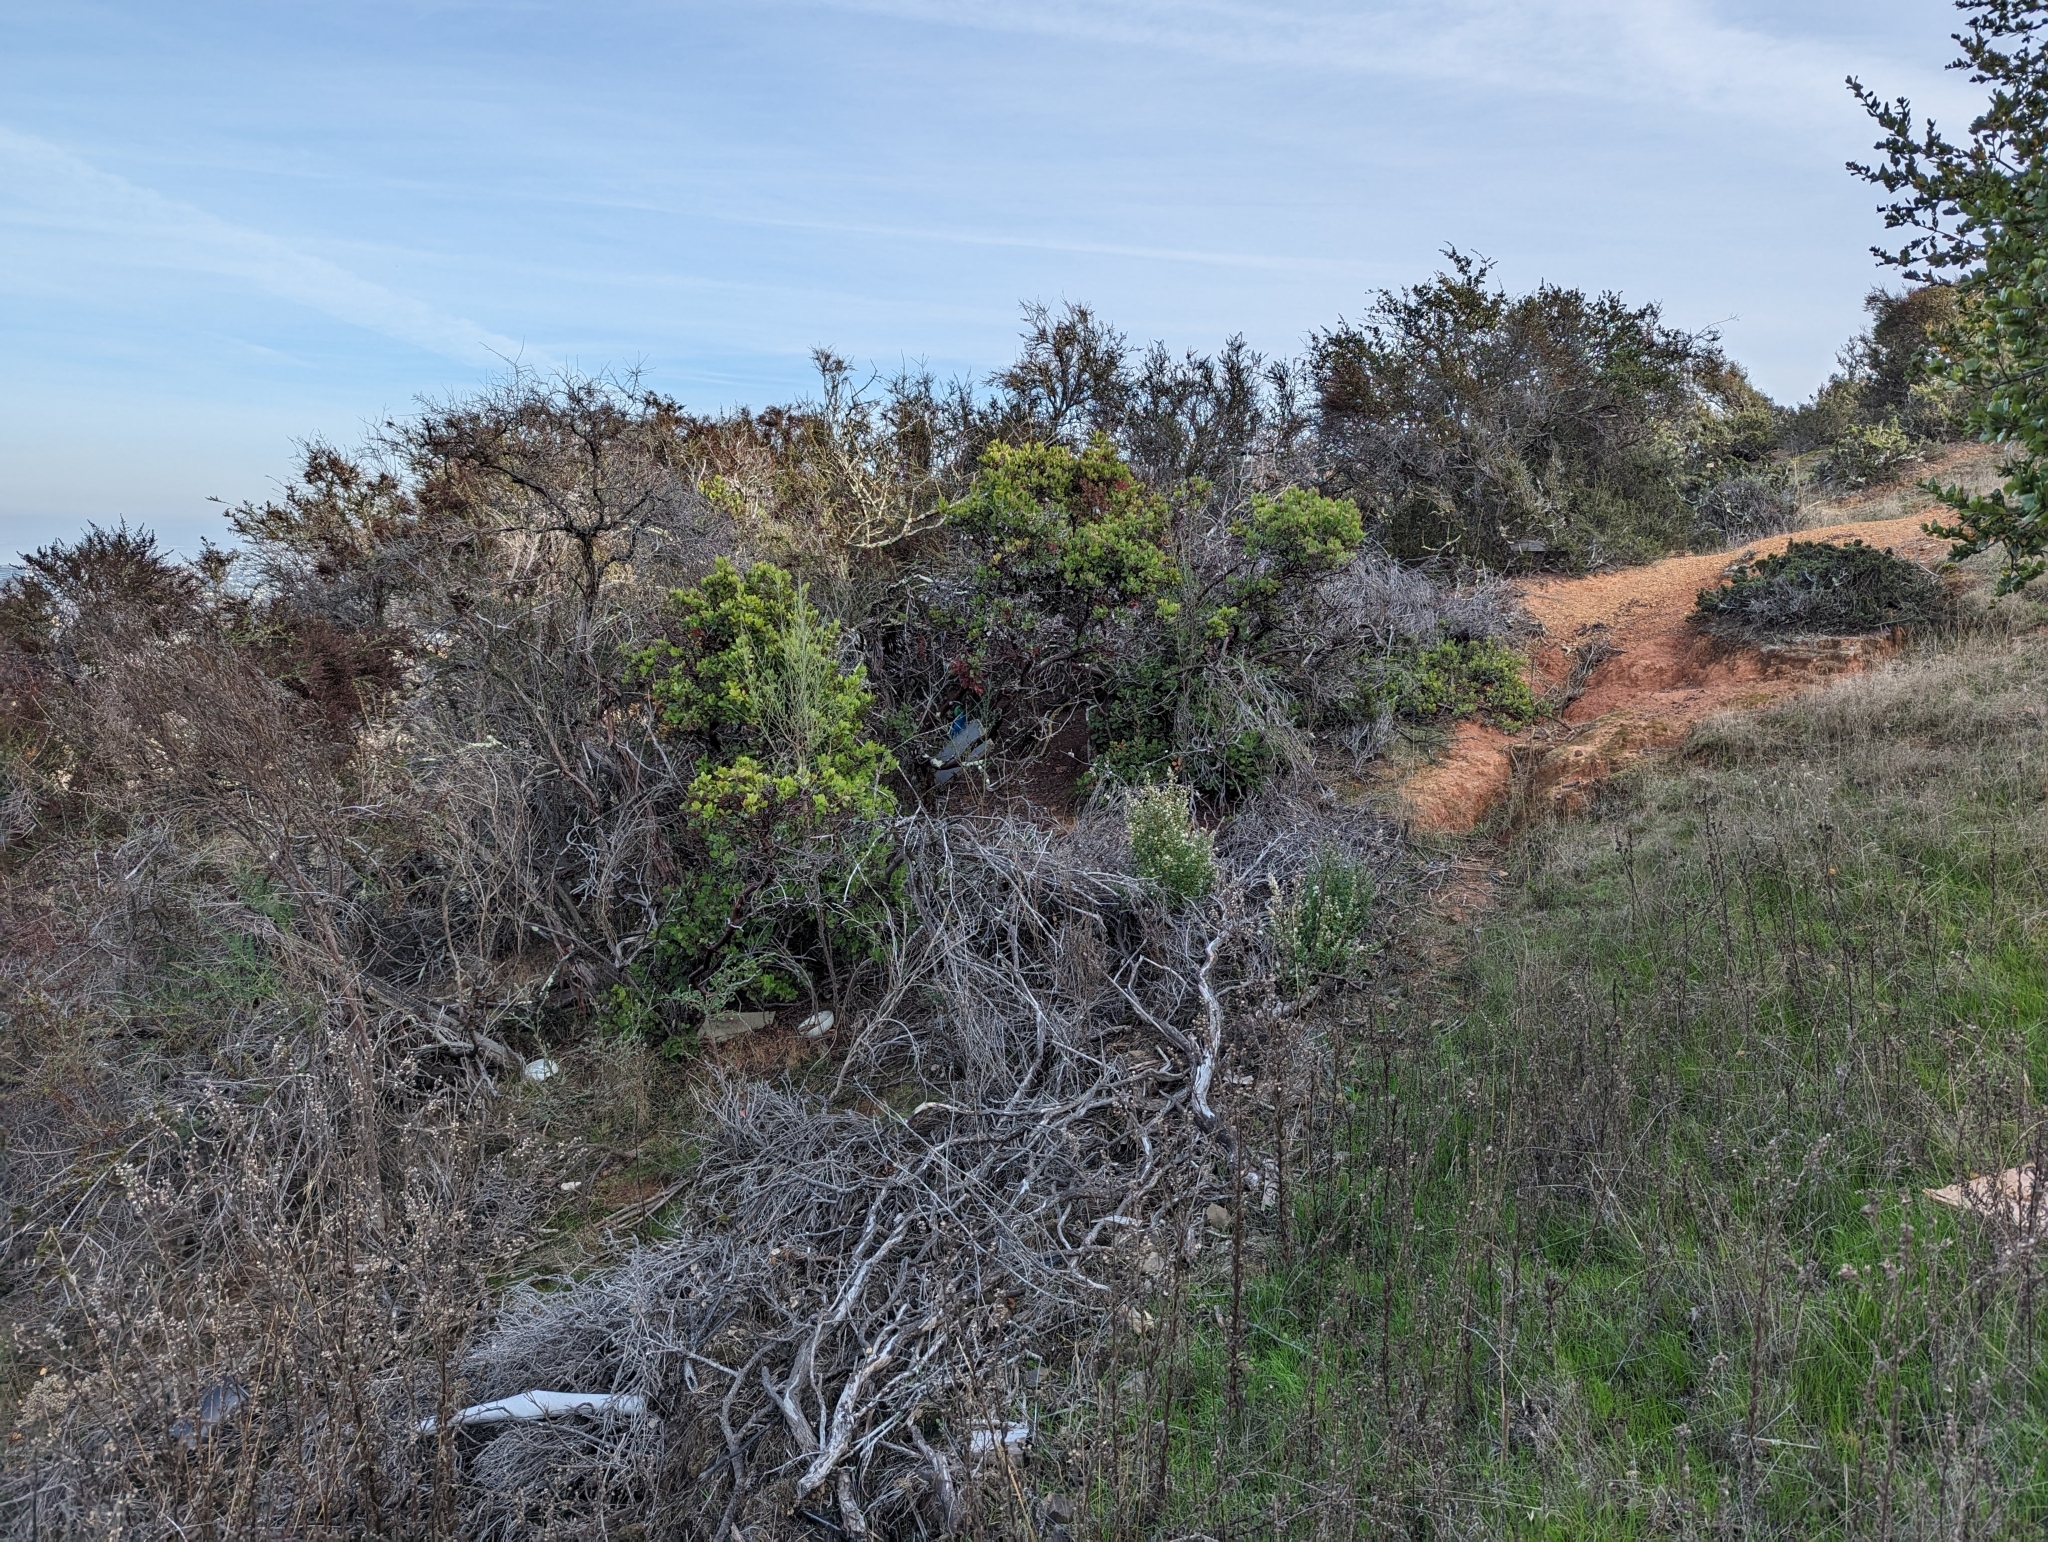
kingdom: Plantae
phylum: Tracheophyta
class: Magnoliopsida
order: Ericales
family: Ericaceae
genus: Arctostaphylos
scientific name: Arctostaphylos crustacea
